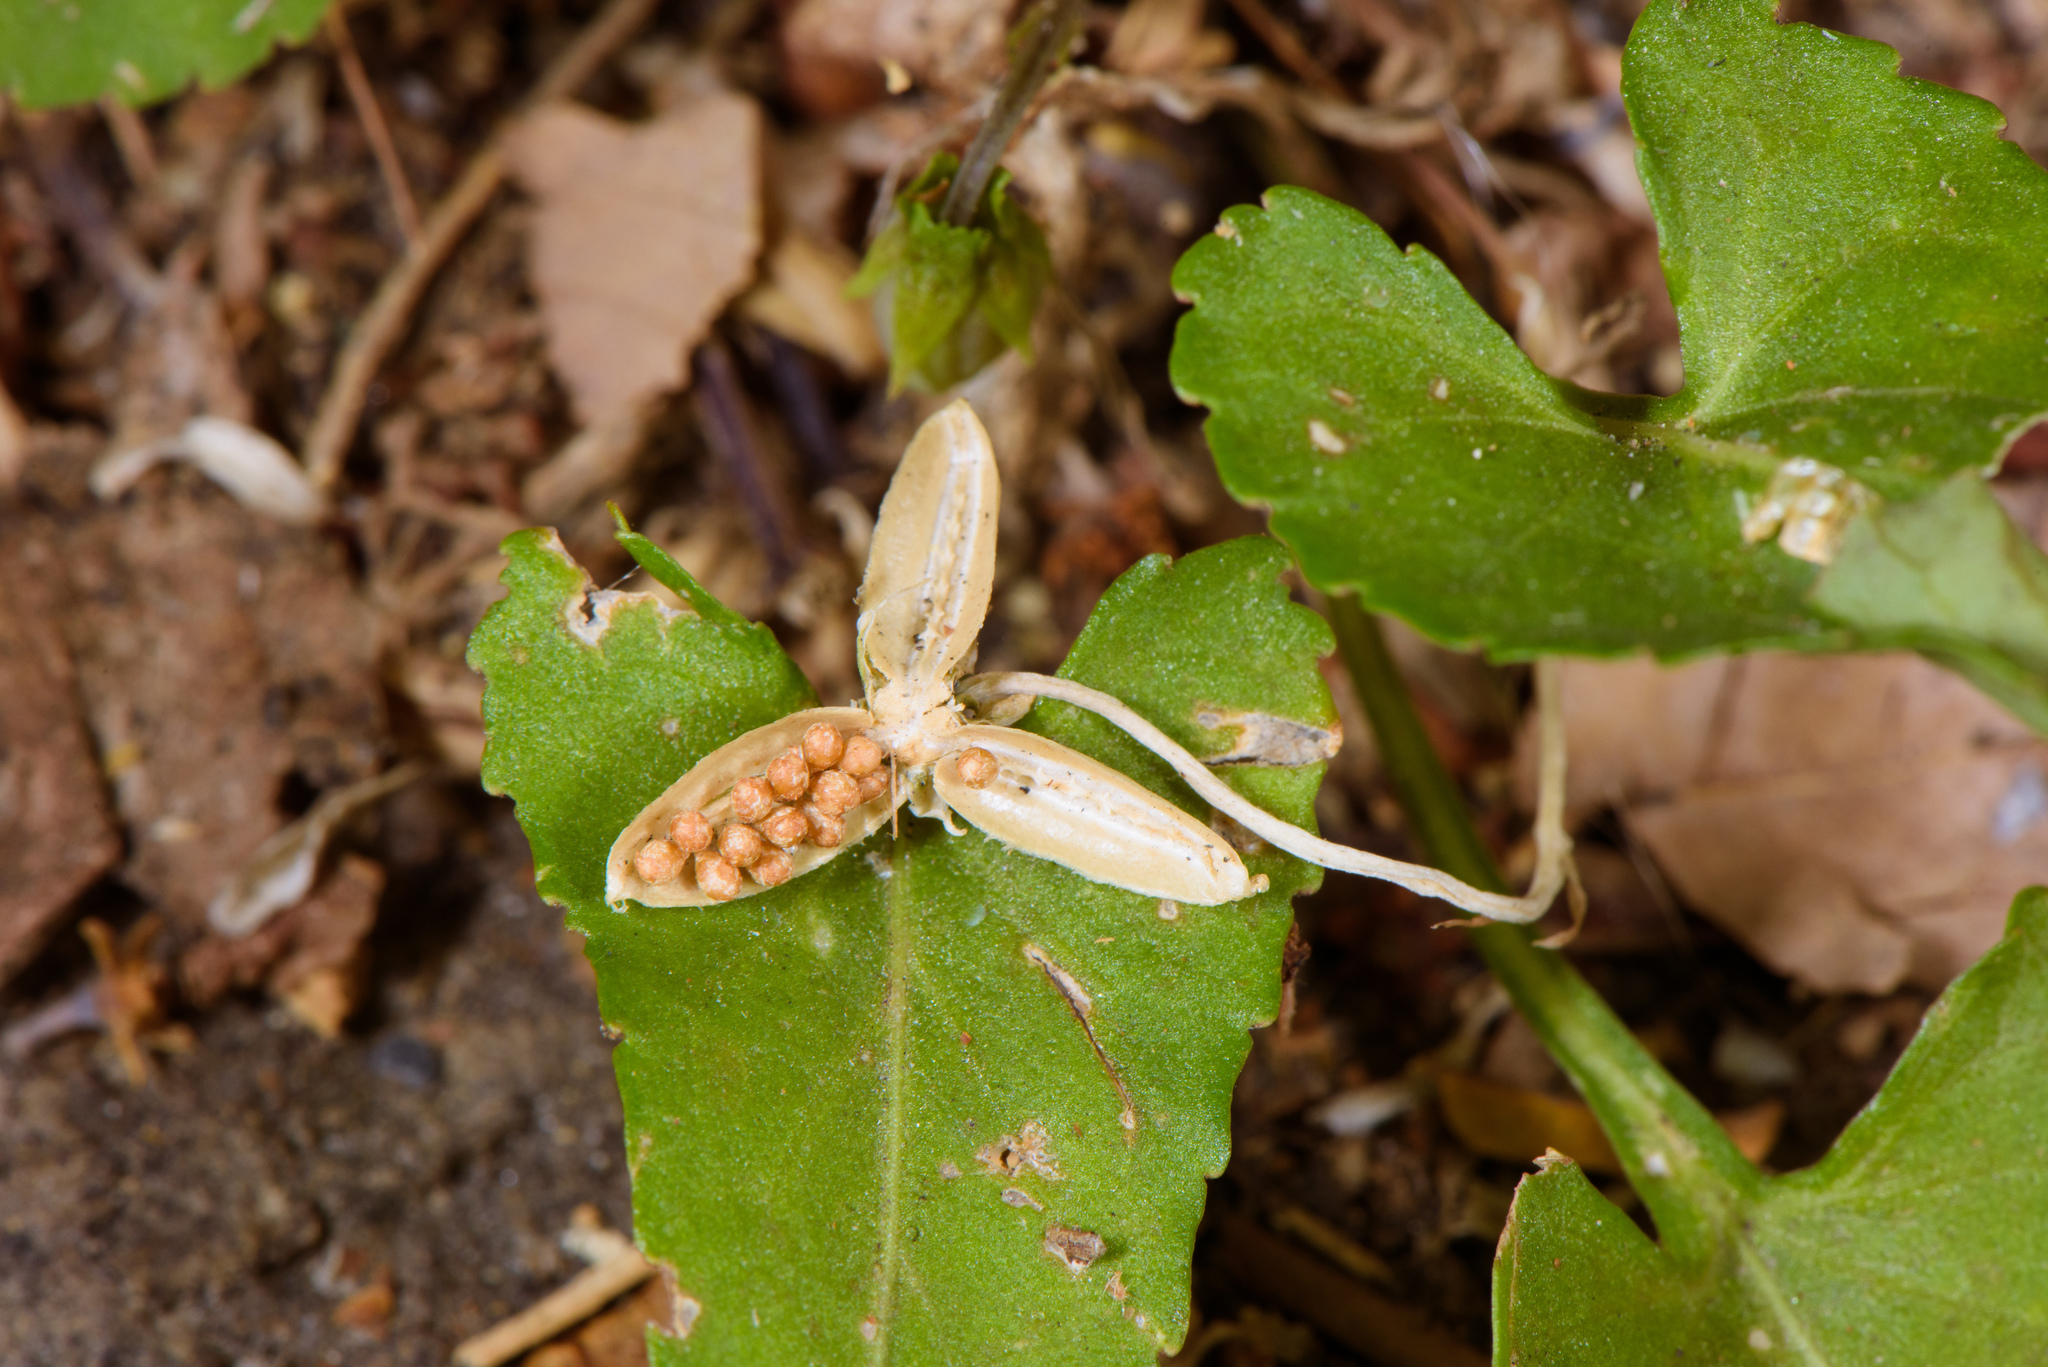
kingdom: Plantae
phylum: Tracheophyta
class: Magnoliopsida
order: Malpighiales
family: Violaceae
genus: Viola
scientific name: Viola inconspicua
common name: Long sepal violet
